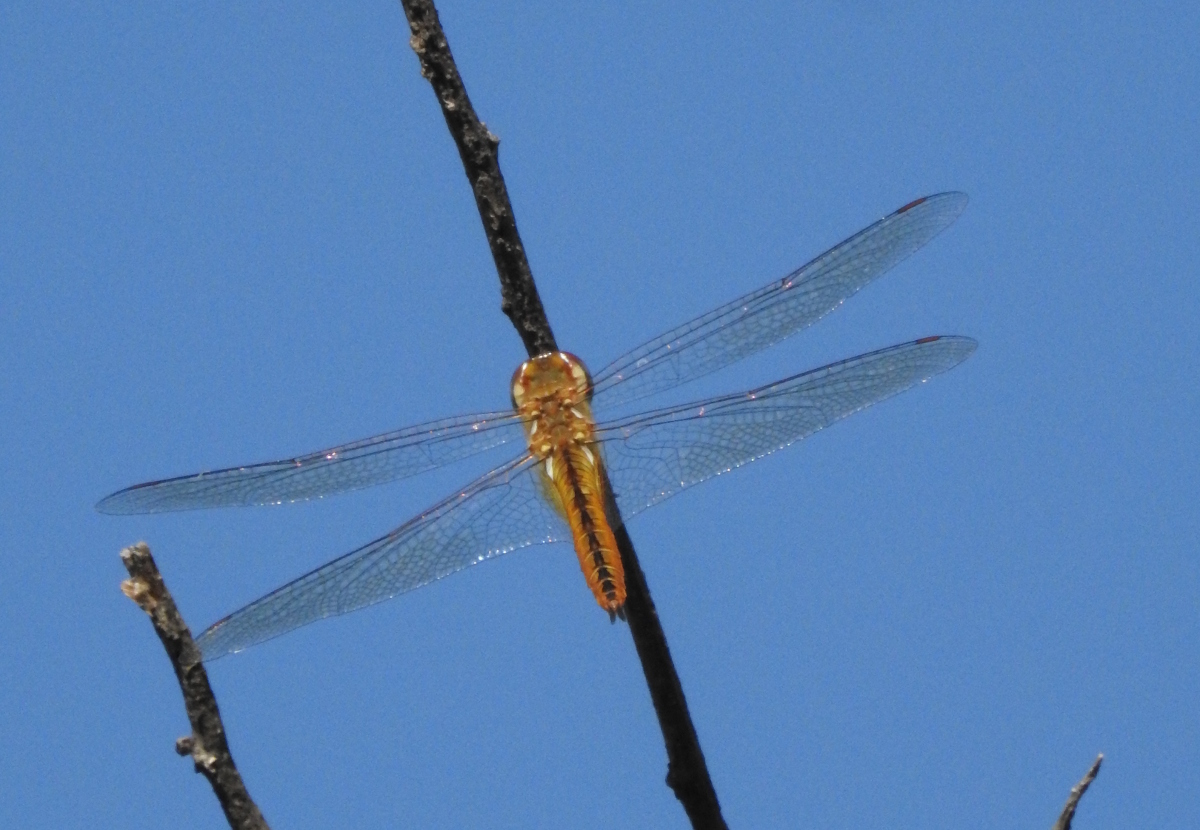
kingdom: Animalia
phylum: Arthropoda
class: Insecta
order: Odonata
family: Libellulidae
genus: Pantala
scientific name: Pantala flavescens
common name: Wandering glider
